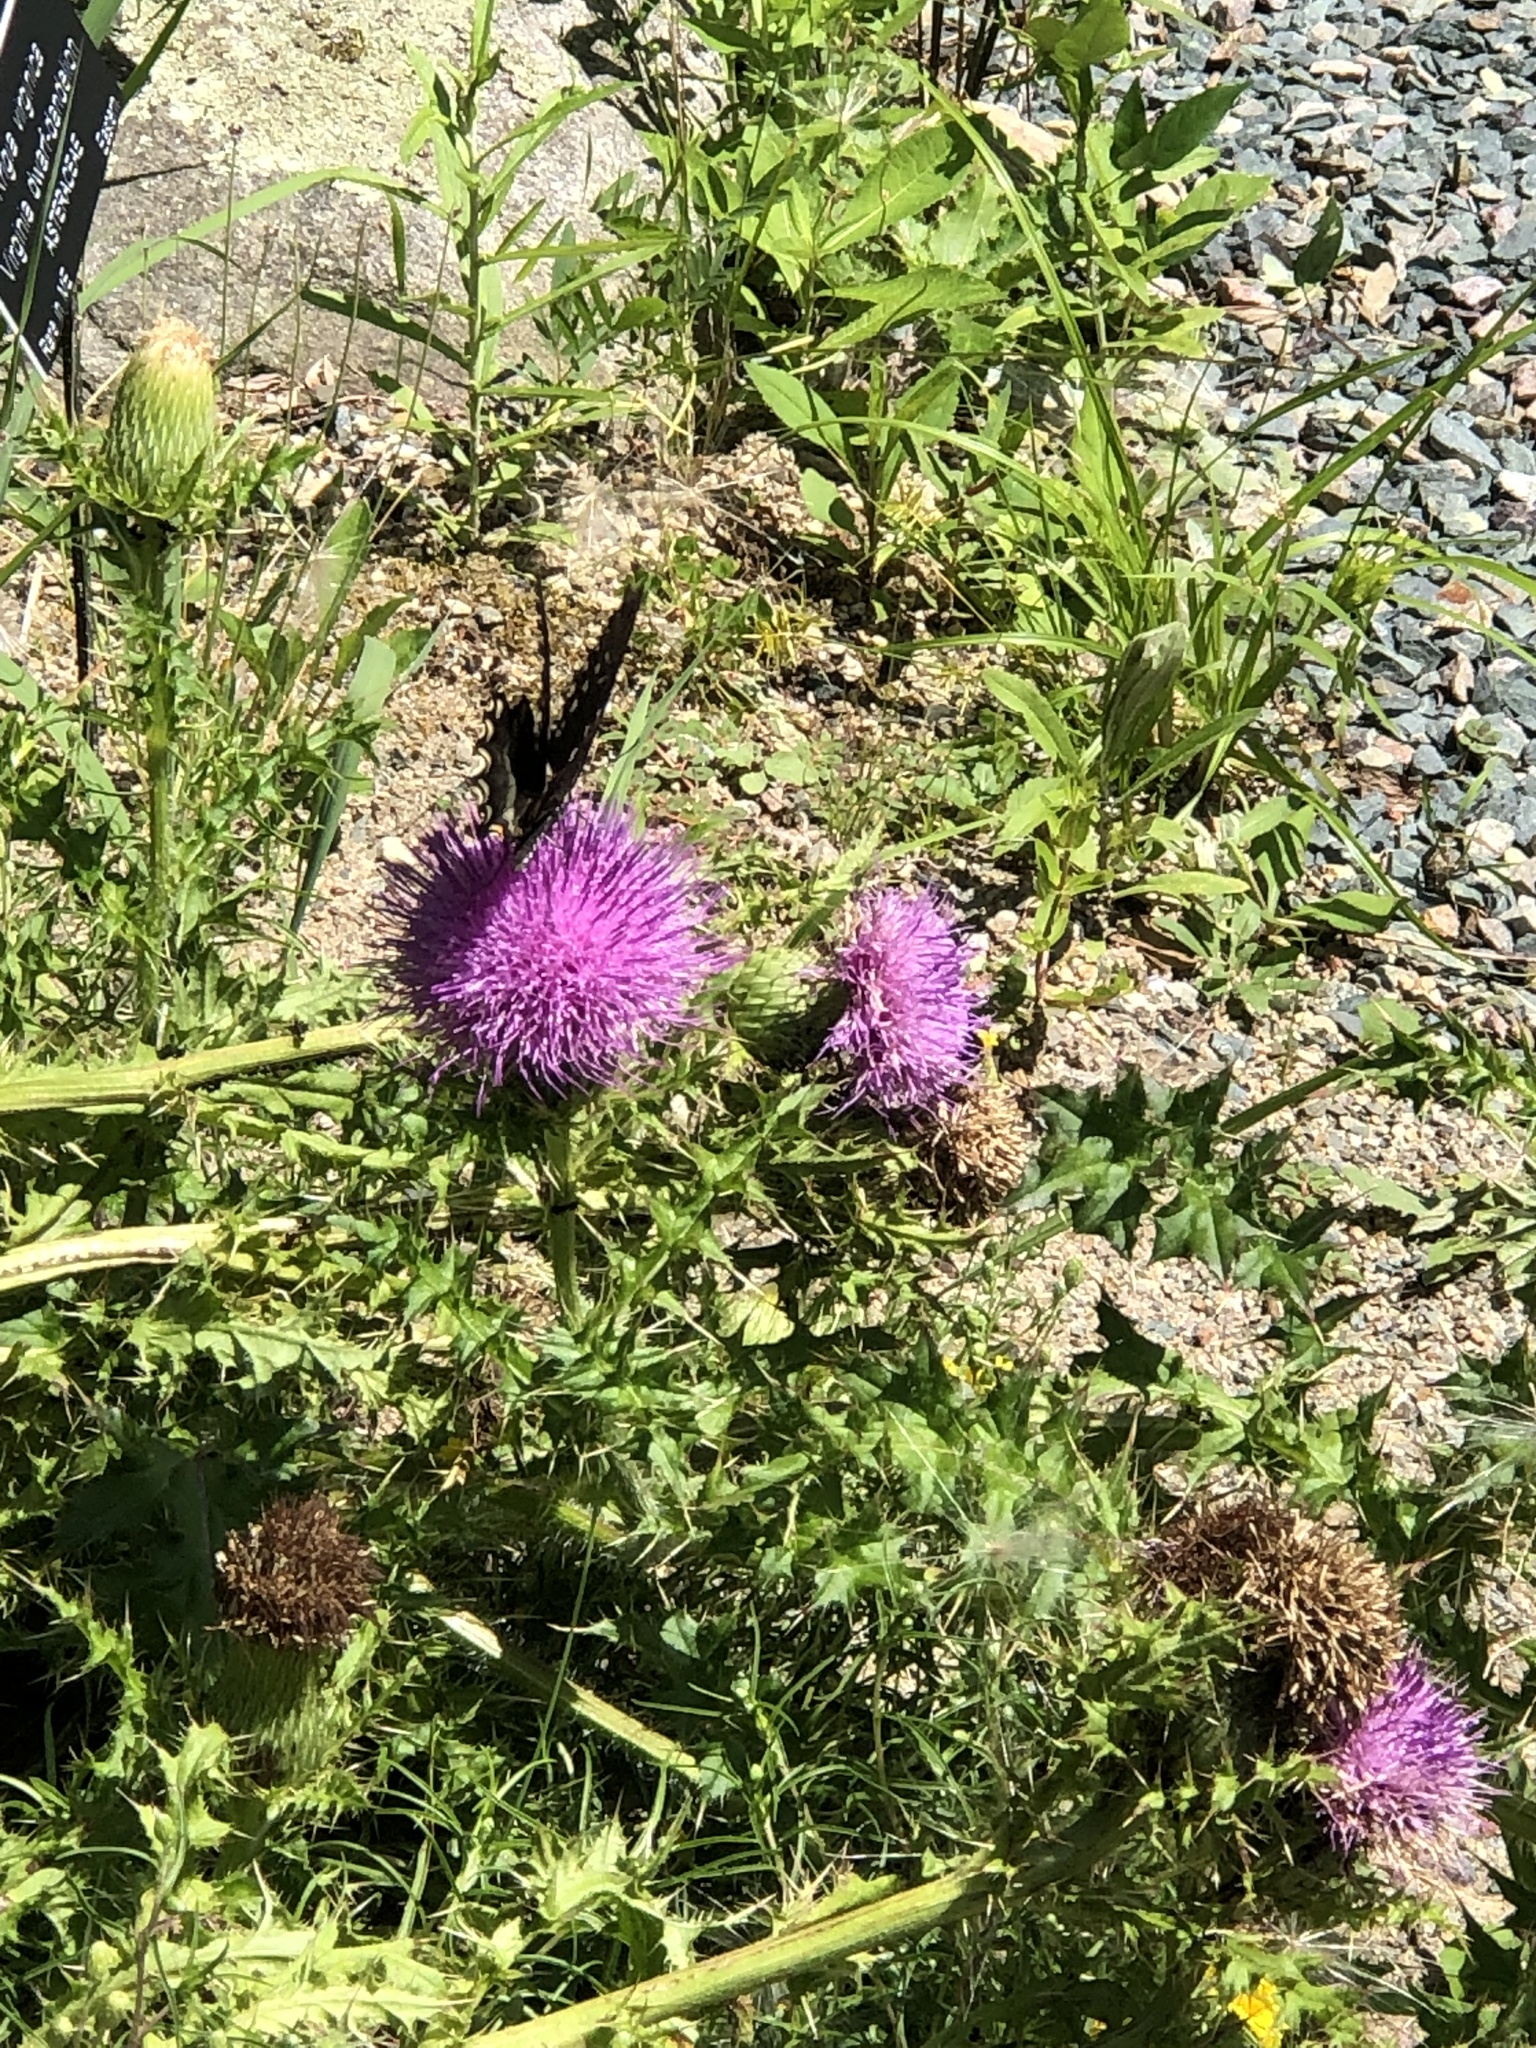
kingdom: Animalia
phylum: Arthropoda
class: Insecta
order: Lepidoptera
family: Papilionidae
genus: Papilio
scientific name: Papilio troilus
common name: Spicebush swallowtail
